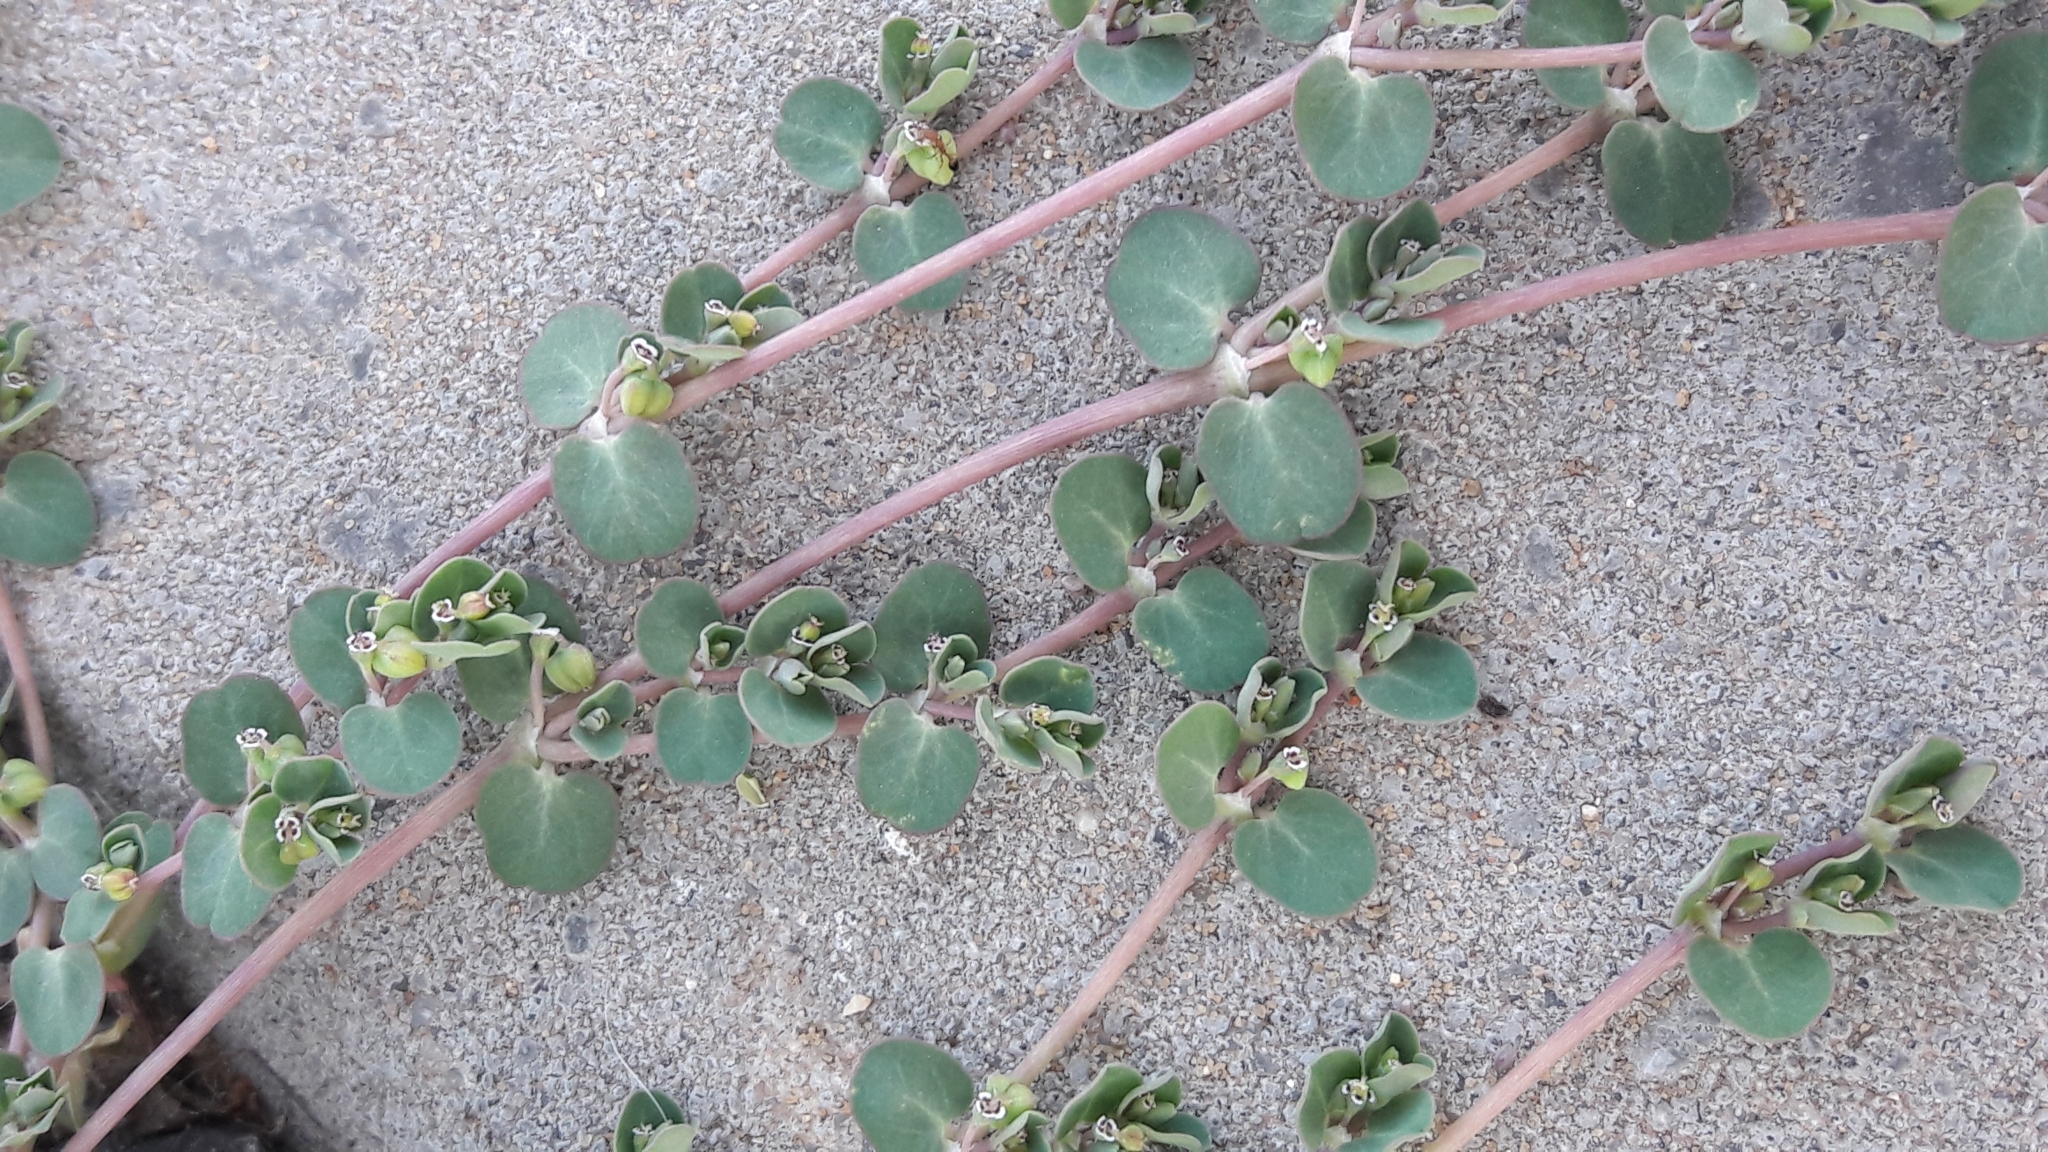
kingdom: Plantae
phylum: Tracheophyta
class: Magnoliopsida
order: Malpighiales
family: Euphorbiaceae
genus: Euphorbia
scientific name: Euphorbia serpens
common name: Matted sandmat
